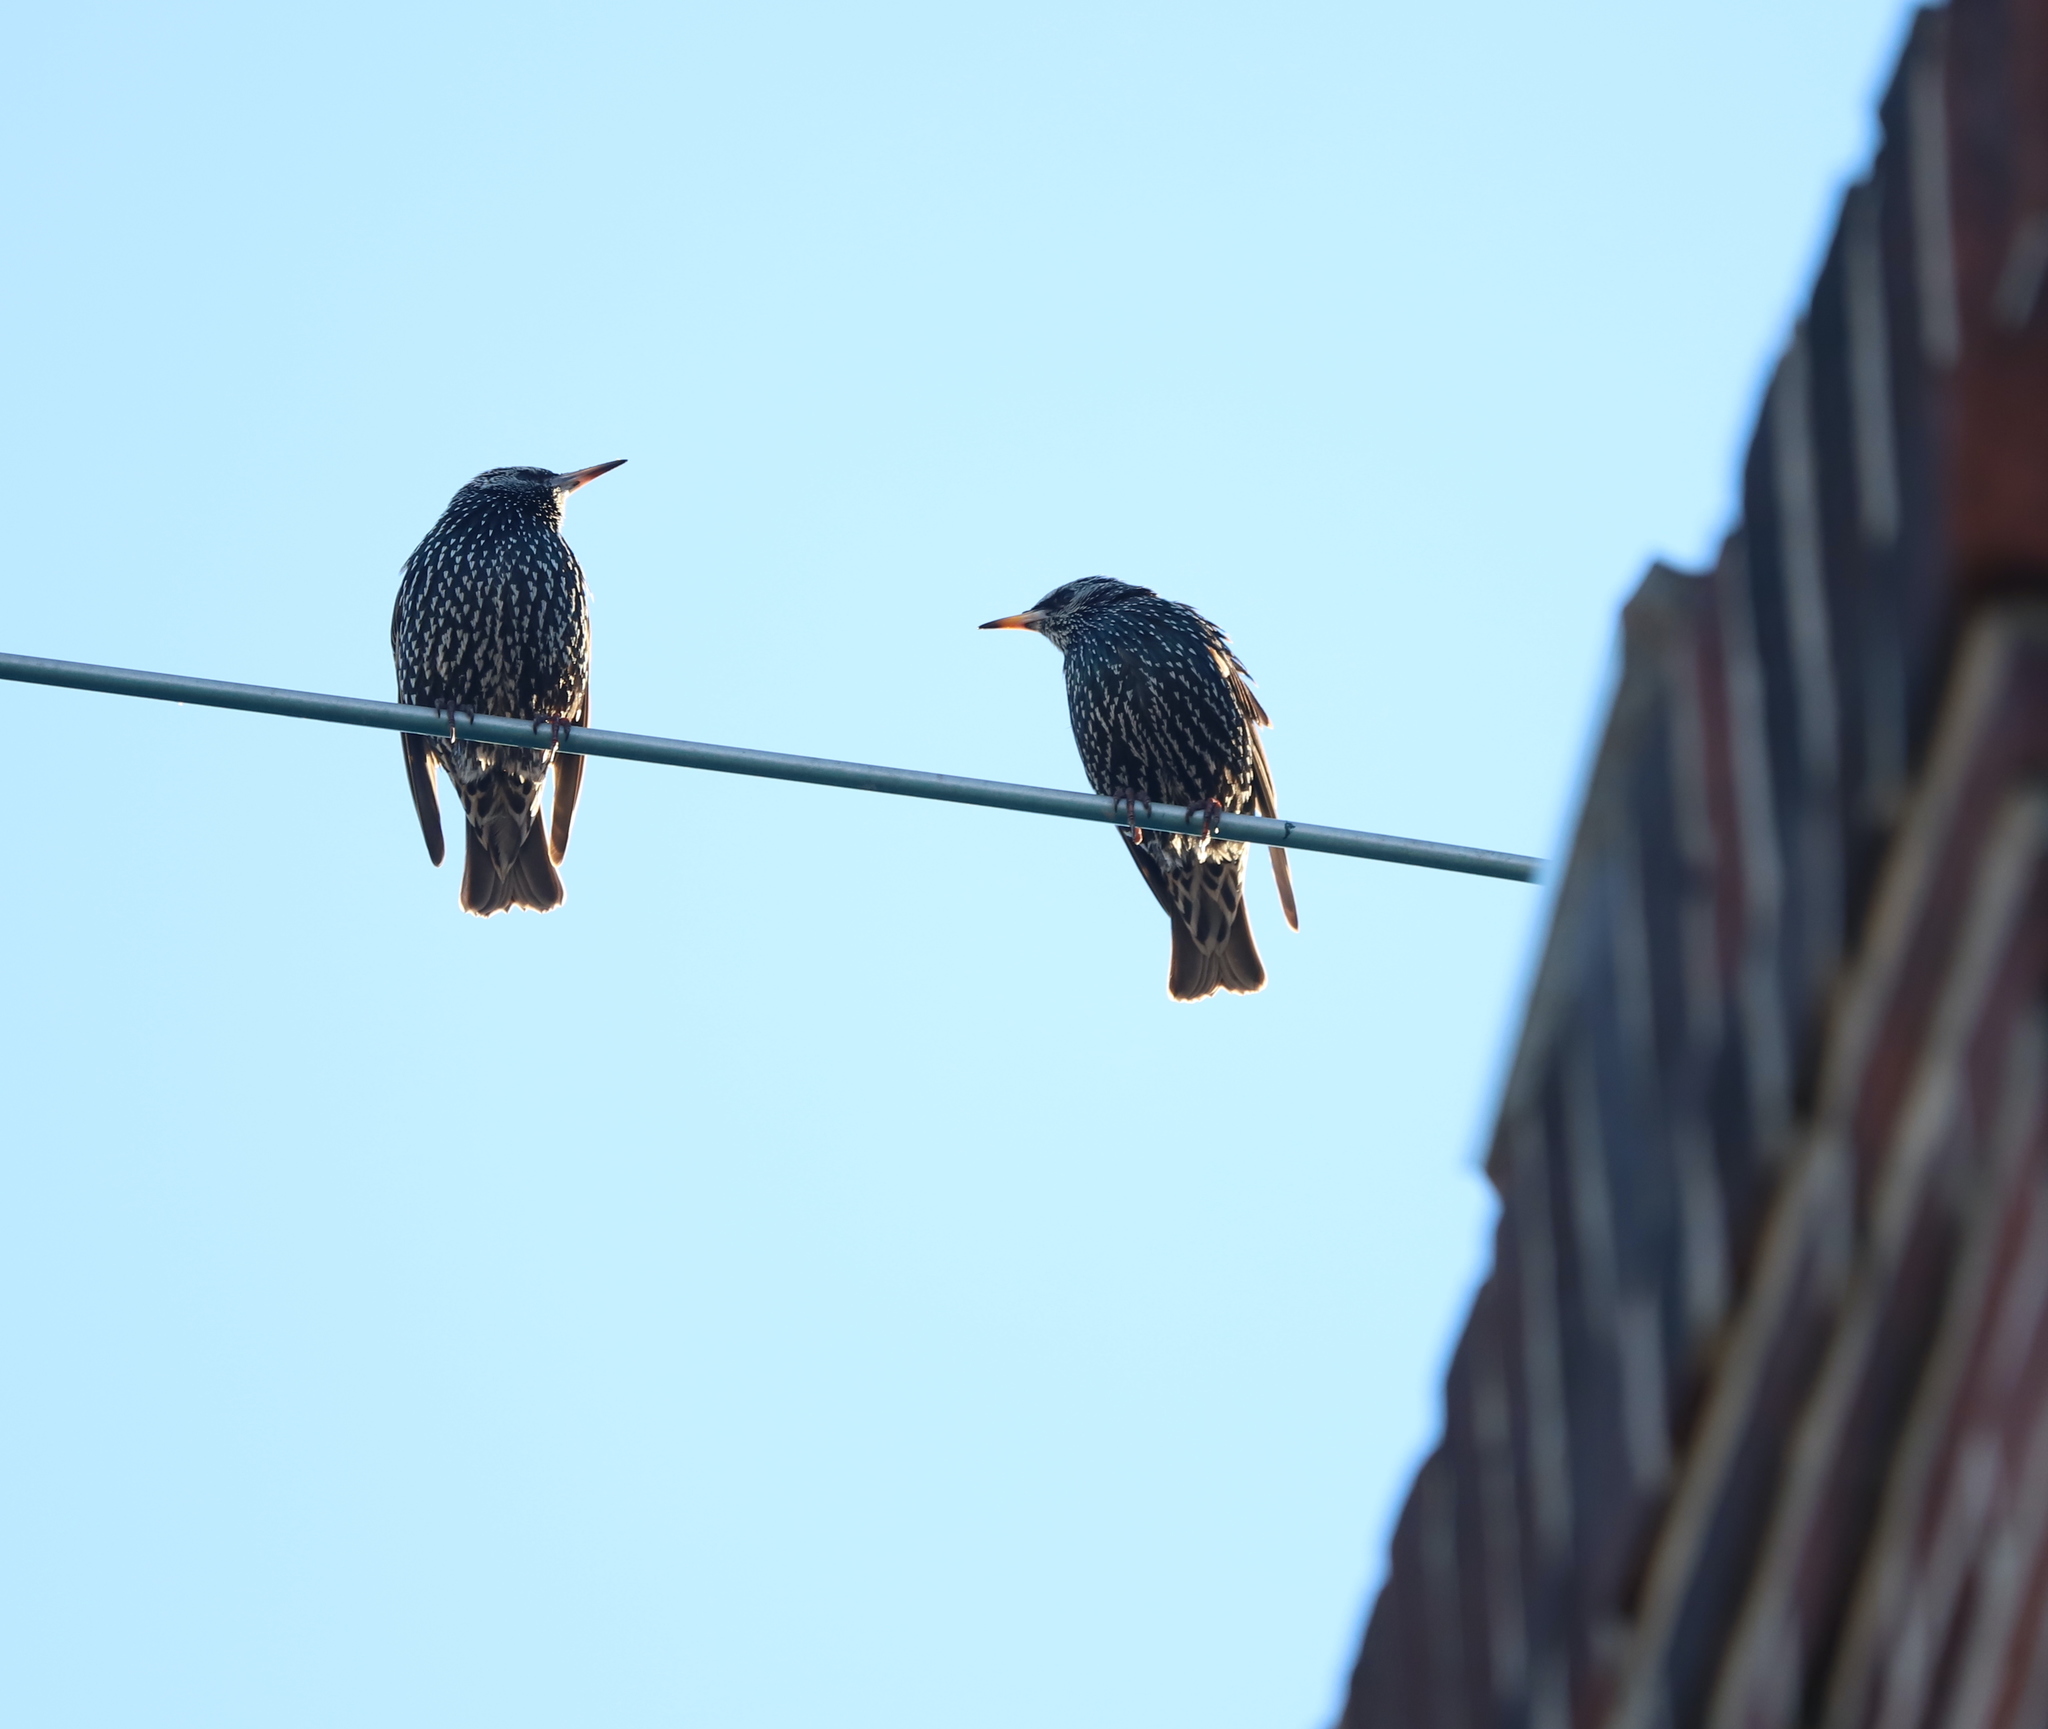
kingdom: Animalia
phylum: Chordata
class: Aves
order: Passeriformes
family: Sturnidae
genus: Sturnus
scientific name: Sturnus vulgaris
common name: Common starling
